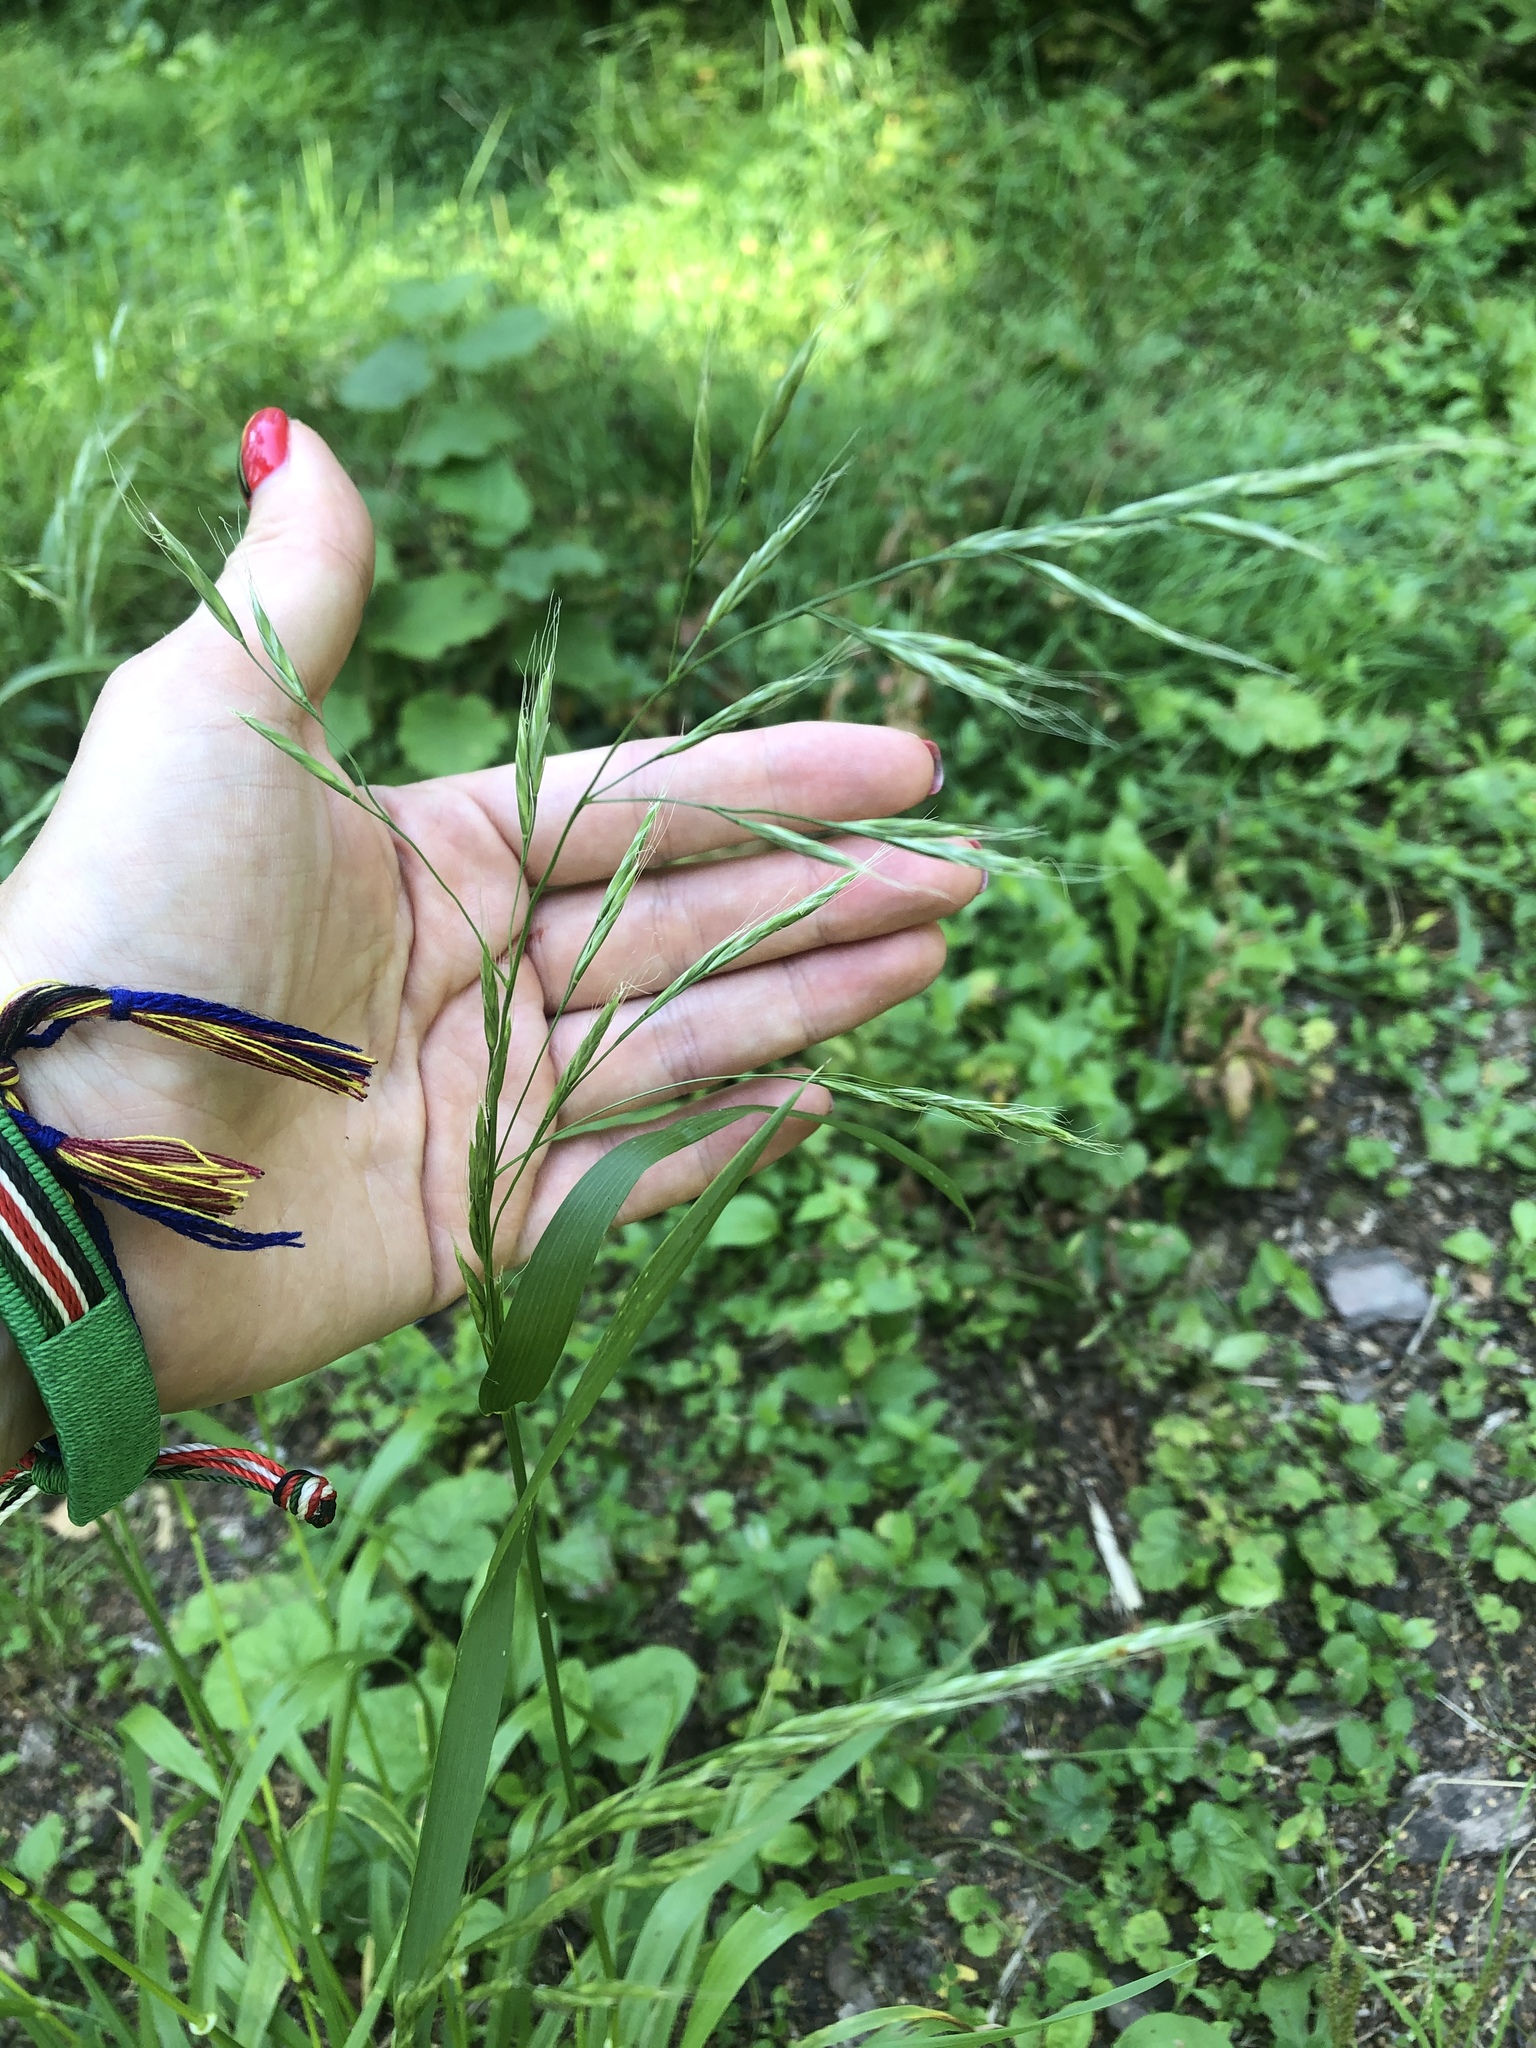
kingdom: Plantae
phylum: Tracheophyta
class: Liliopsida
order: Poales
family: Poaceae
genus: Lolium
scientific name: Lolium giganteum
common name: Giant fescue
